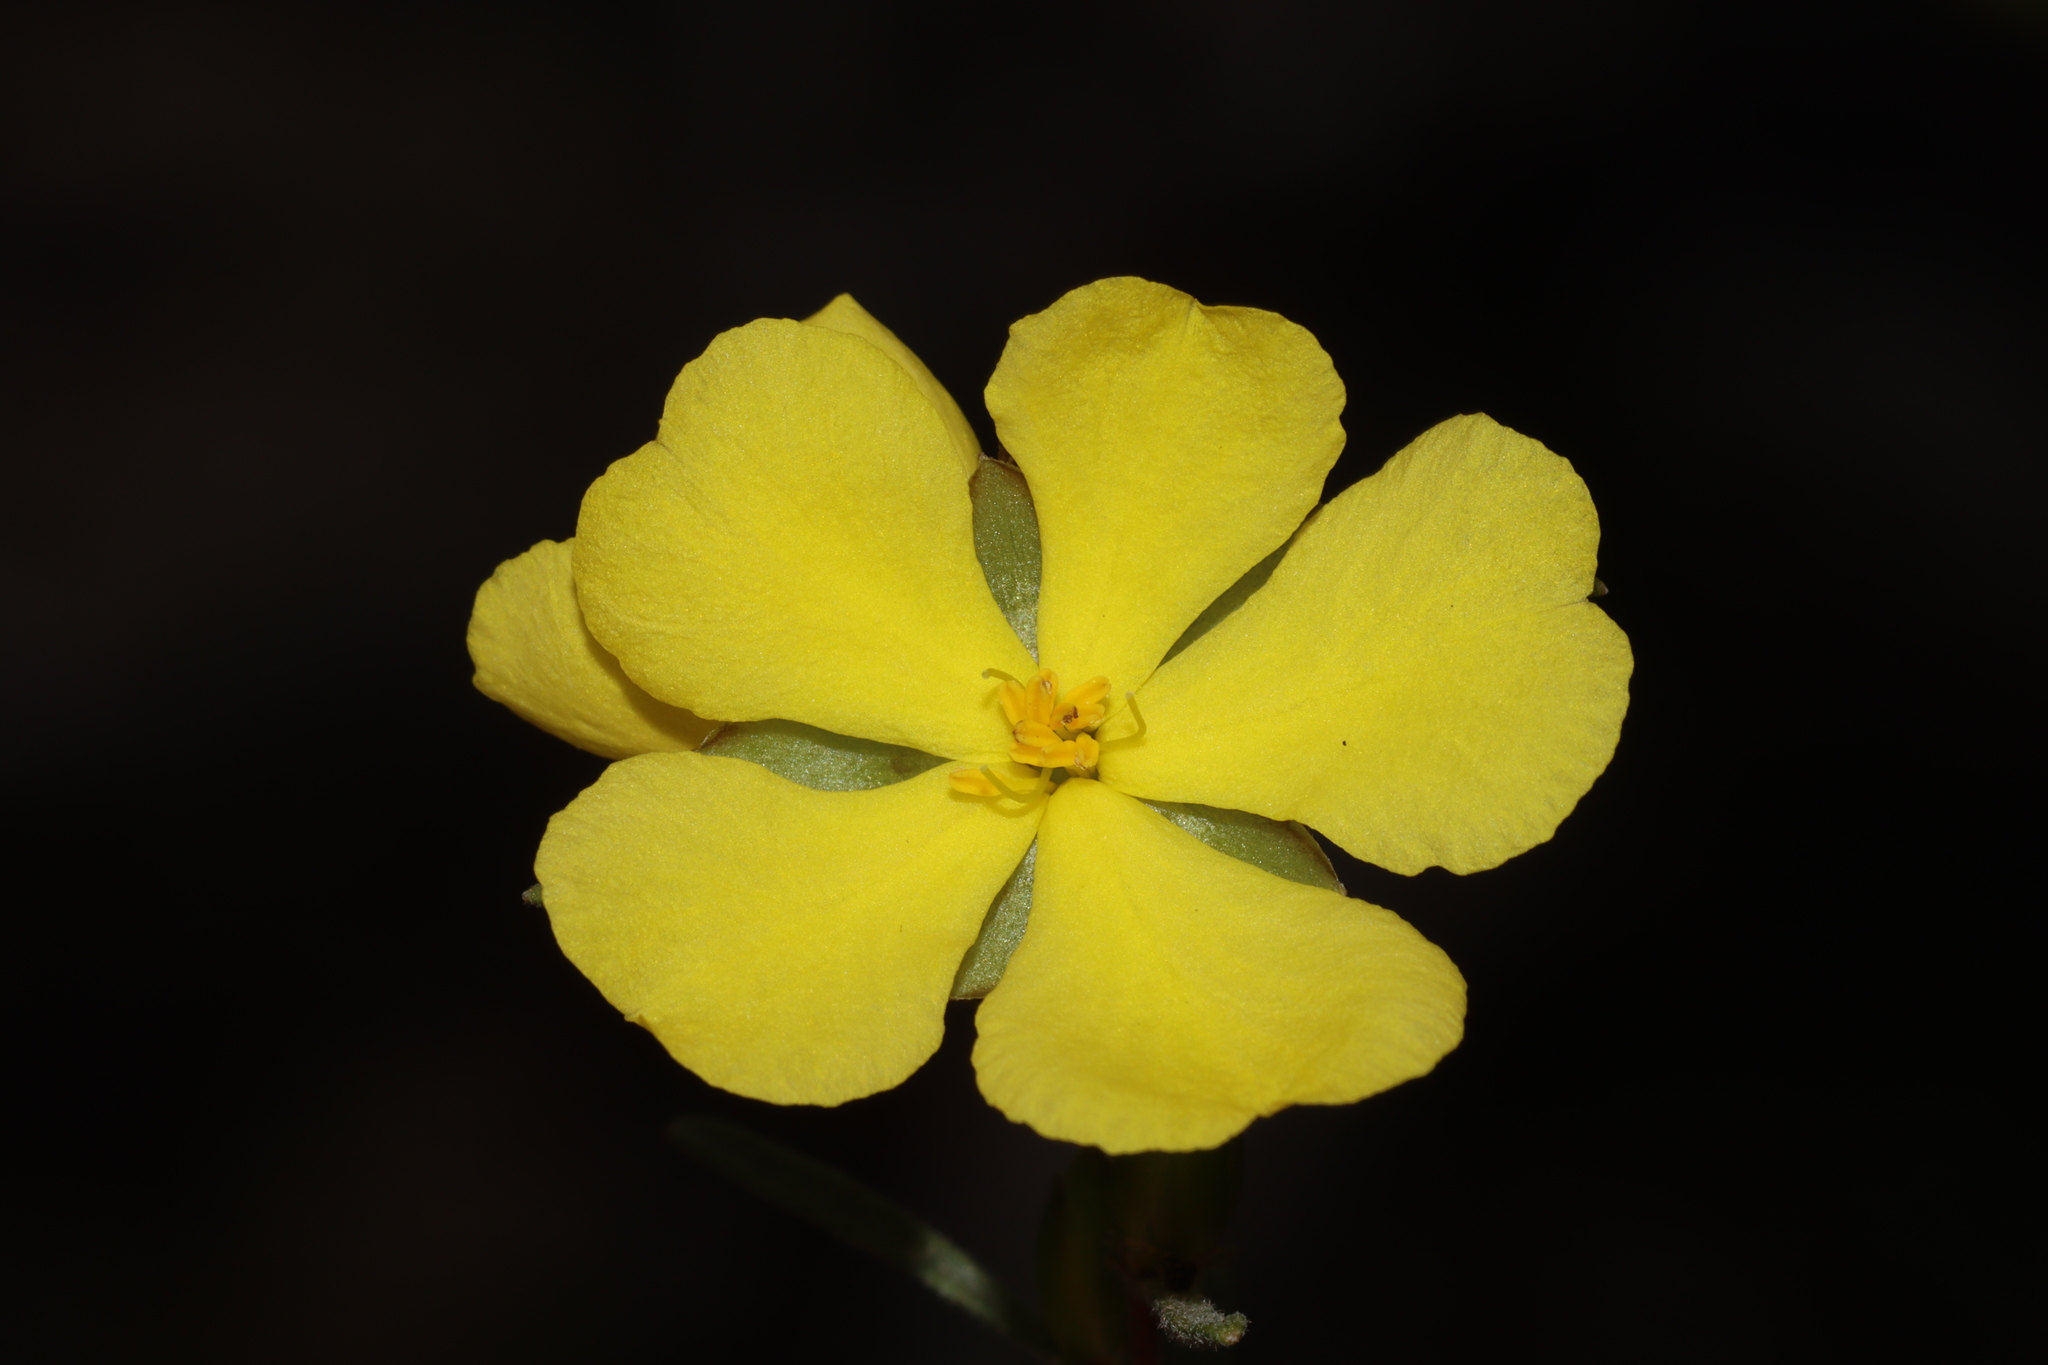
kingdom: Plantae
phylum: Tracheophyta
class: Magnoliopsida
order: Dilleniales
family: Dilleniaceae
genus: Hibbertia
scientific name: Hibbertia virgata
